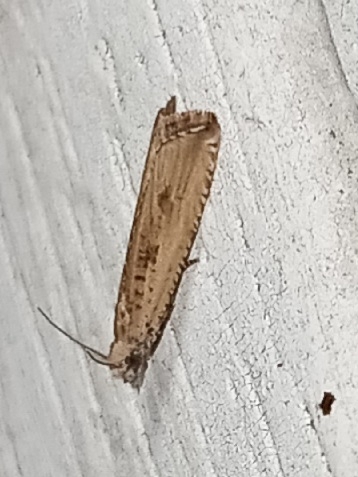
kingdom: Animalia
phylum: Arthropoda
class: Insecta
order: Lepidoptera
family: Tortricidae
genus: Bactra
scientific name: Bactra verutana
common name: Javelin moth
